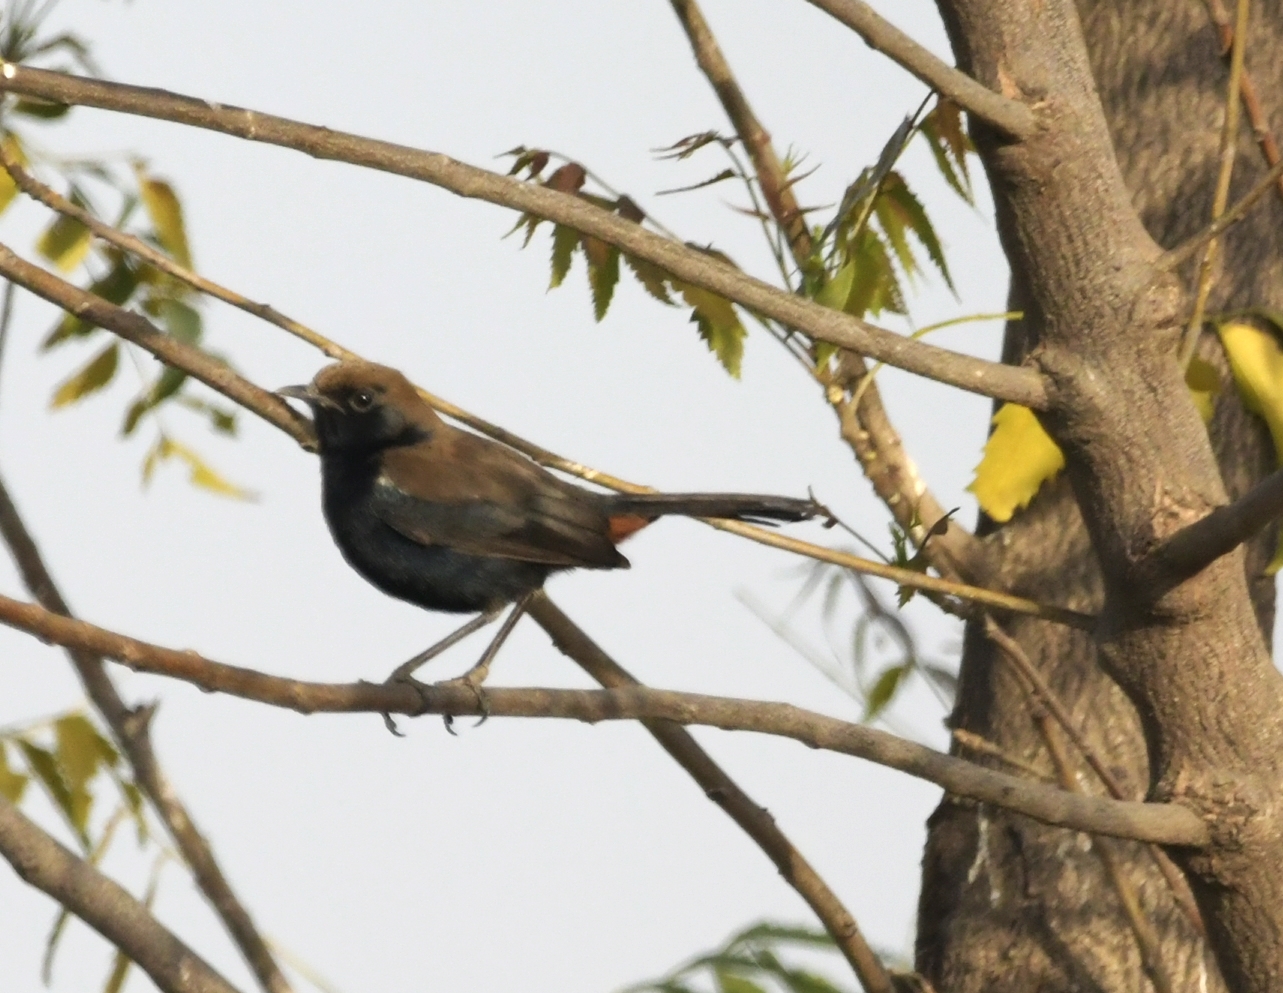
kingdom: Animalia
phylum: Chordata
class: Aves
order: Passeriformes
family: Muscicapidae
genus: Saxicoloides
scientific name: Saxicoloides fulicatus
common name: Indian robin
